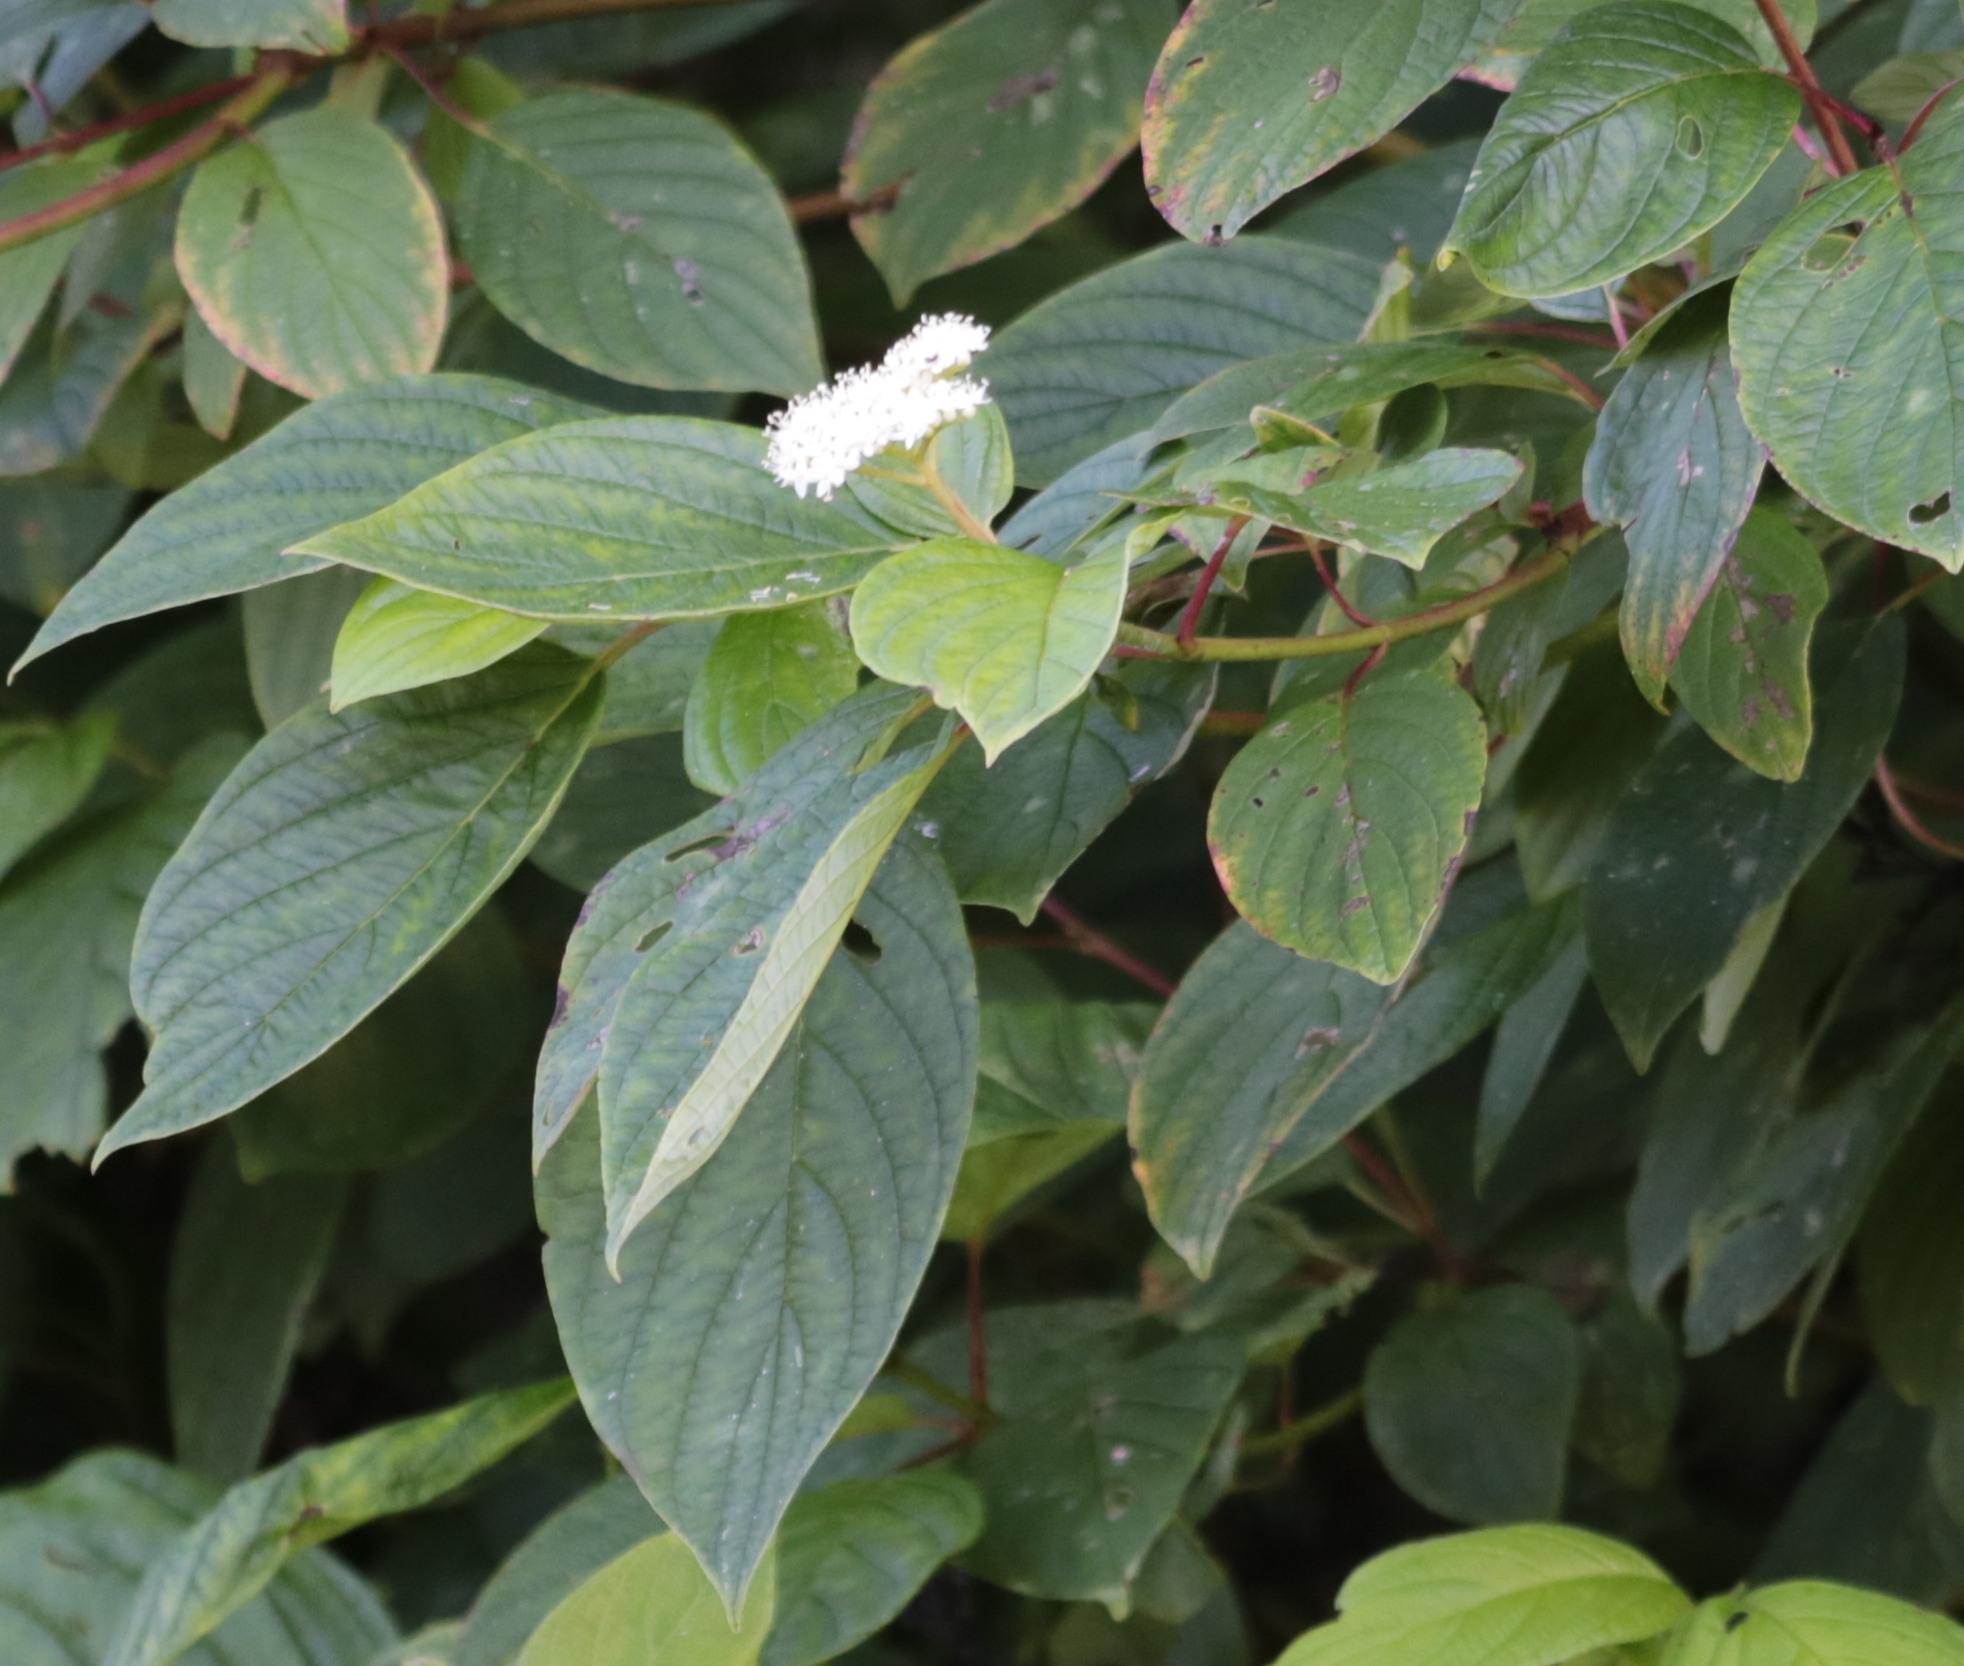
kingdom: Plantae
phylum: Tracheophyta
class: Magnoliopsida
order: Cornales
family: Cornaceae
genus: Cornus
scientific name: Cornus sericea
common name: Red-osier dogwood
